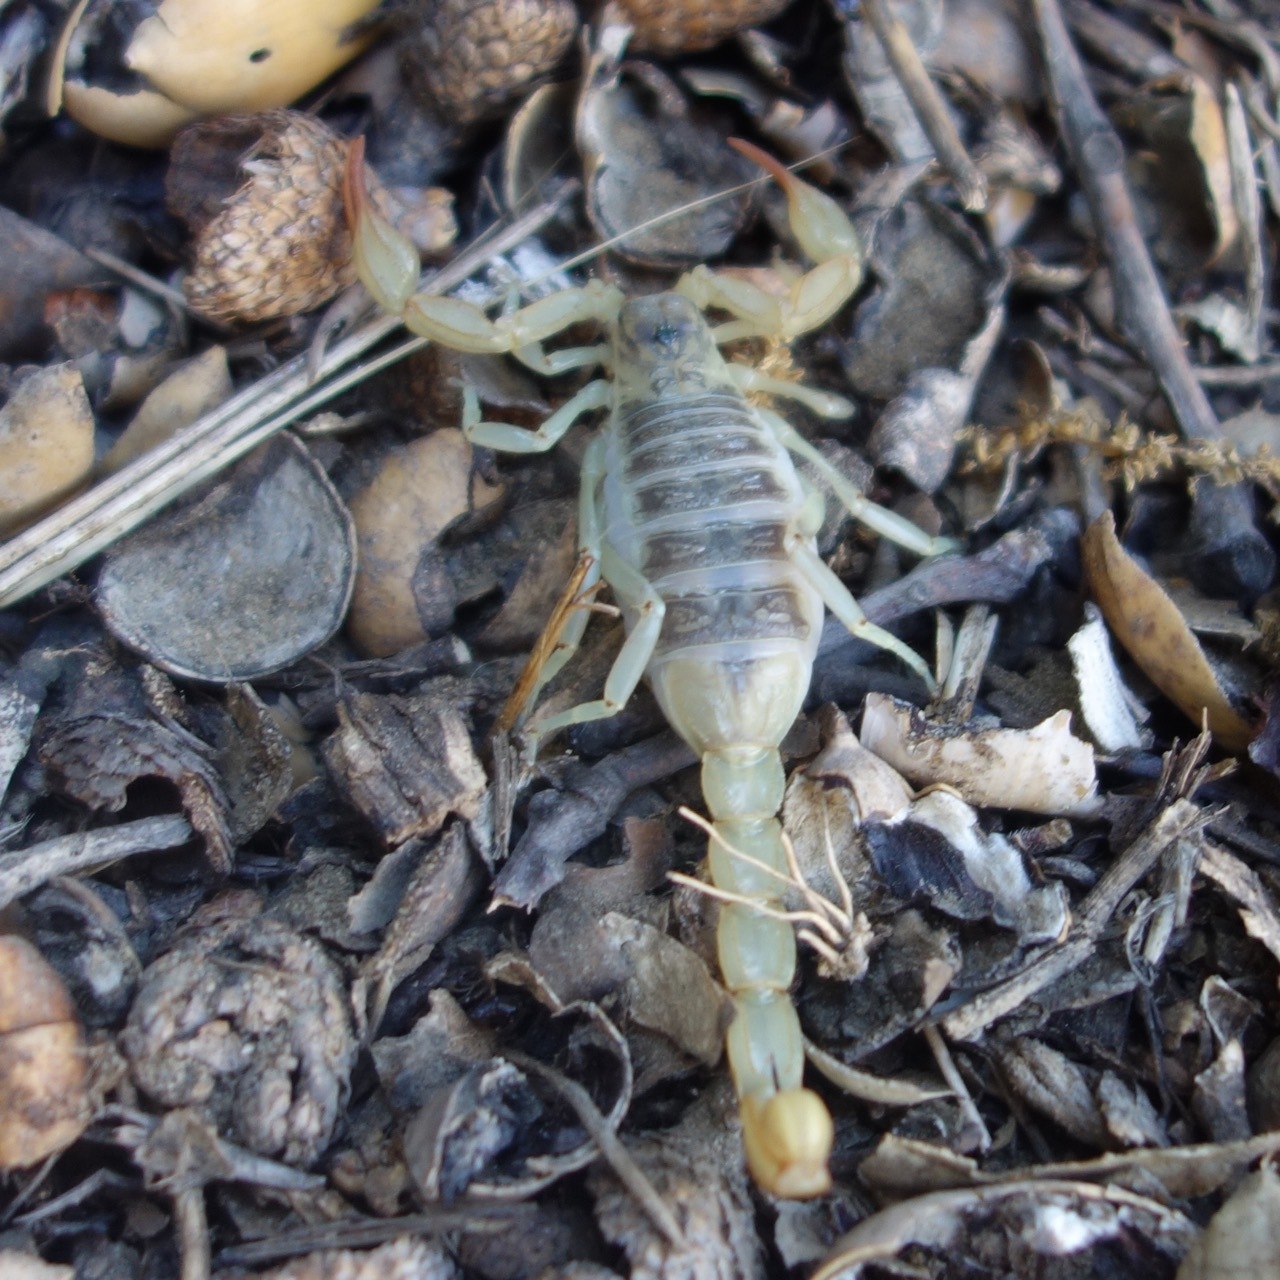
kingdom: Animalia
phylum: Arthropoda
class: Arachnida
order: Scorpiones
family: Vaejovidae
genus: Paruroctonus
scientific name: Paruroctonus silvestrii
